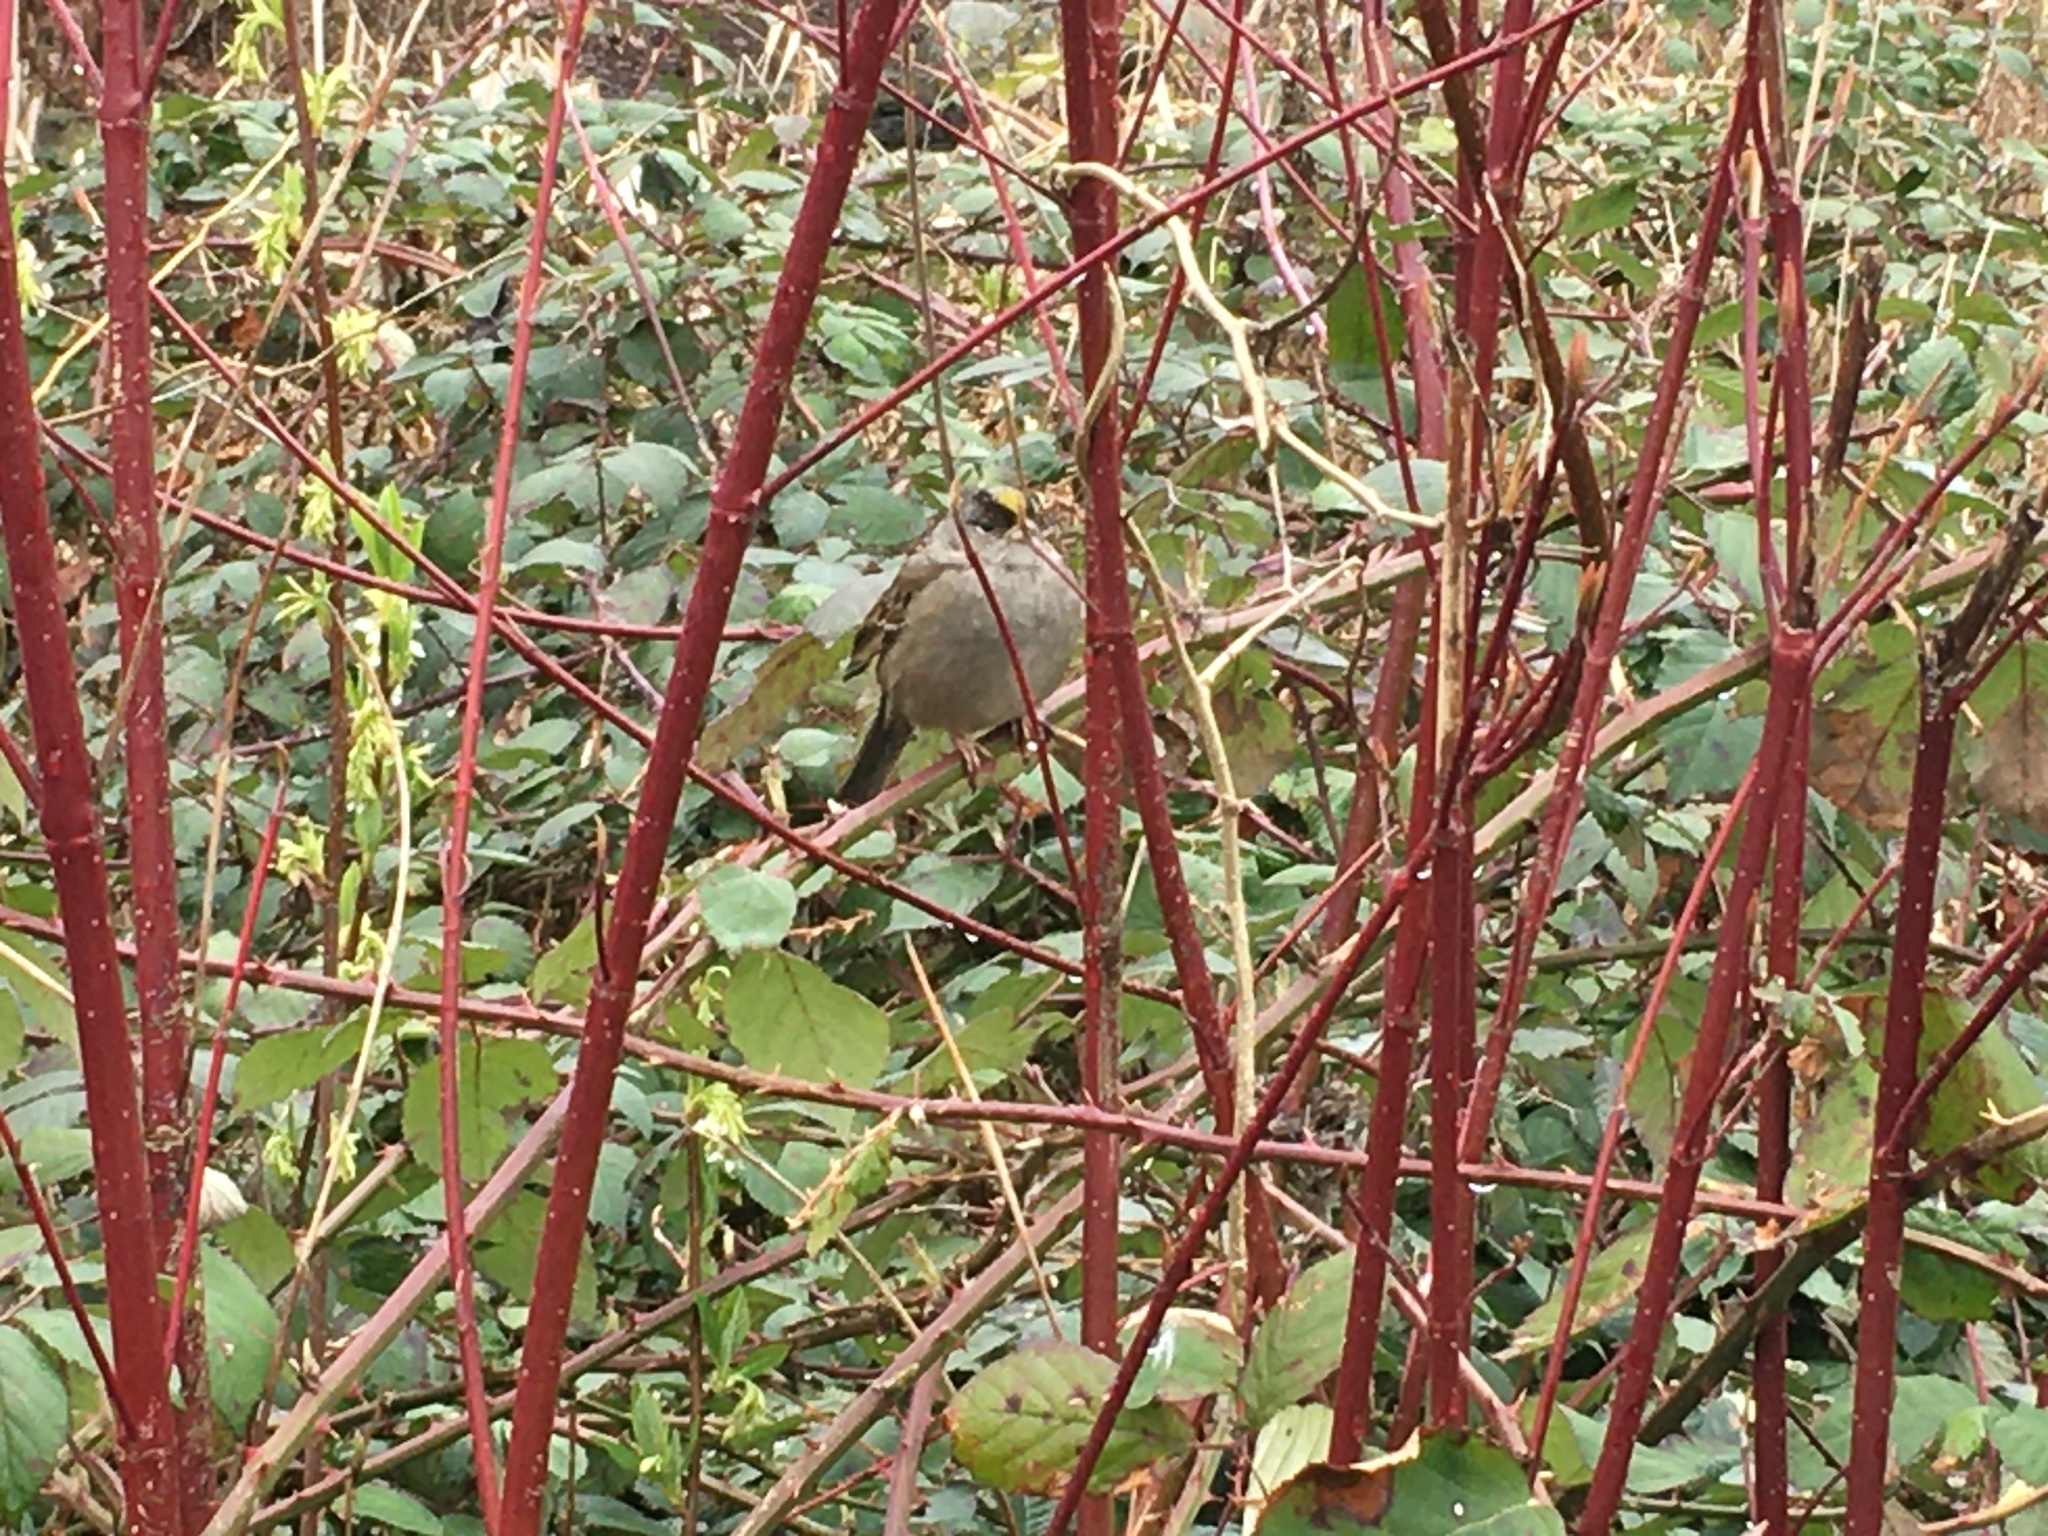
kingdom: Animalia
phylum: Chordata
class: Aves
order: Passeriformes
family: Passerellidae
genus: Zonotrichia
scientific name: Zonotrichia atricapilla
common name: Golden-crowned sparrow
